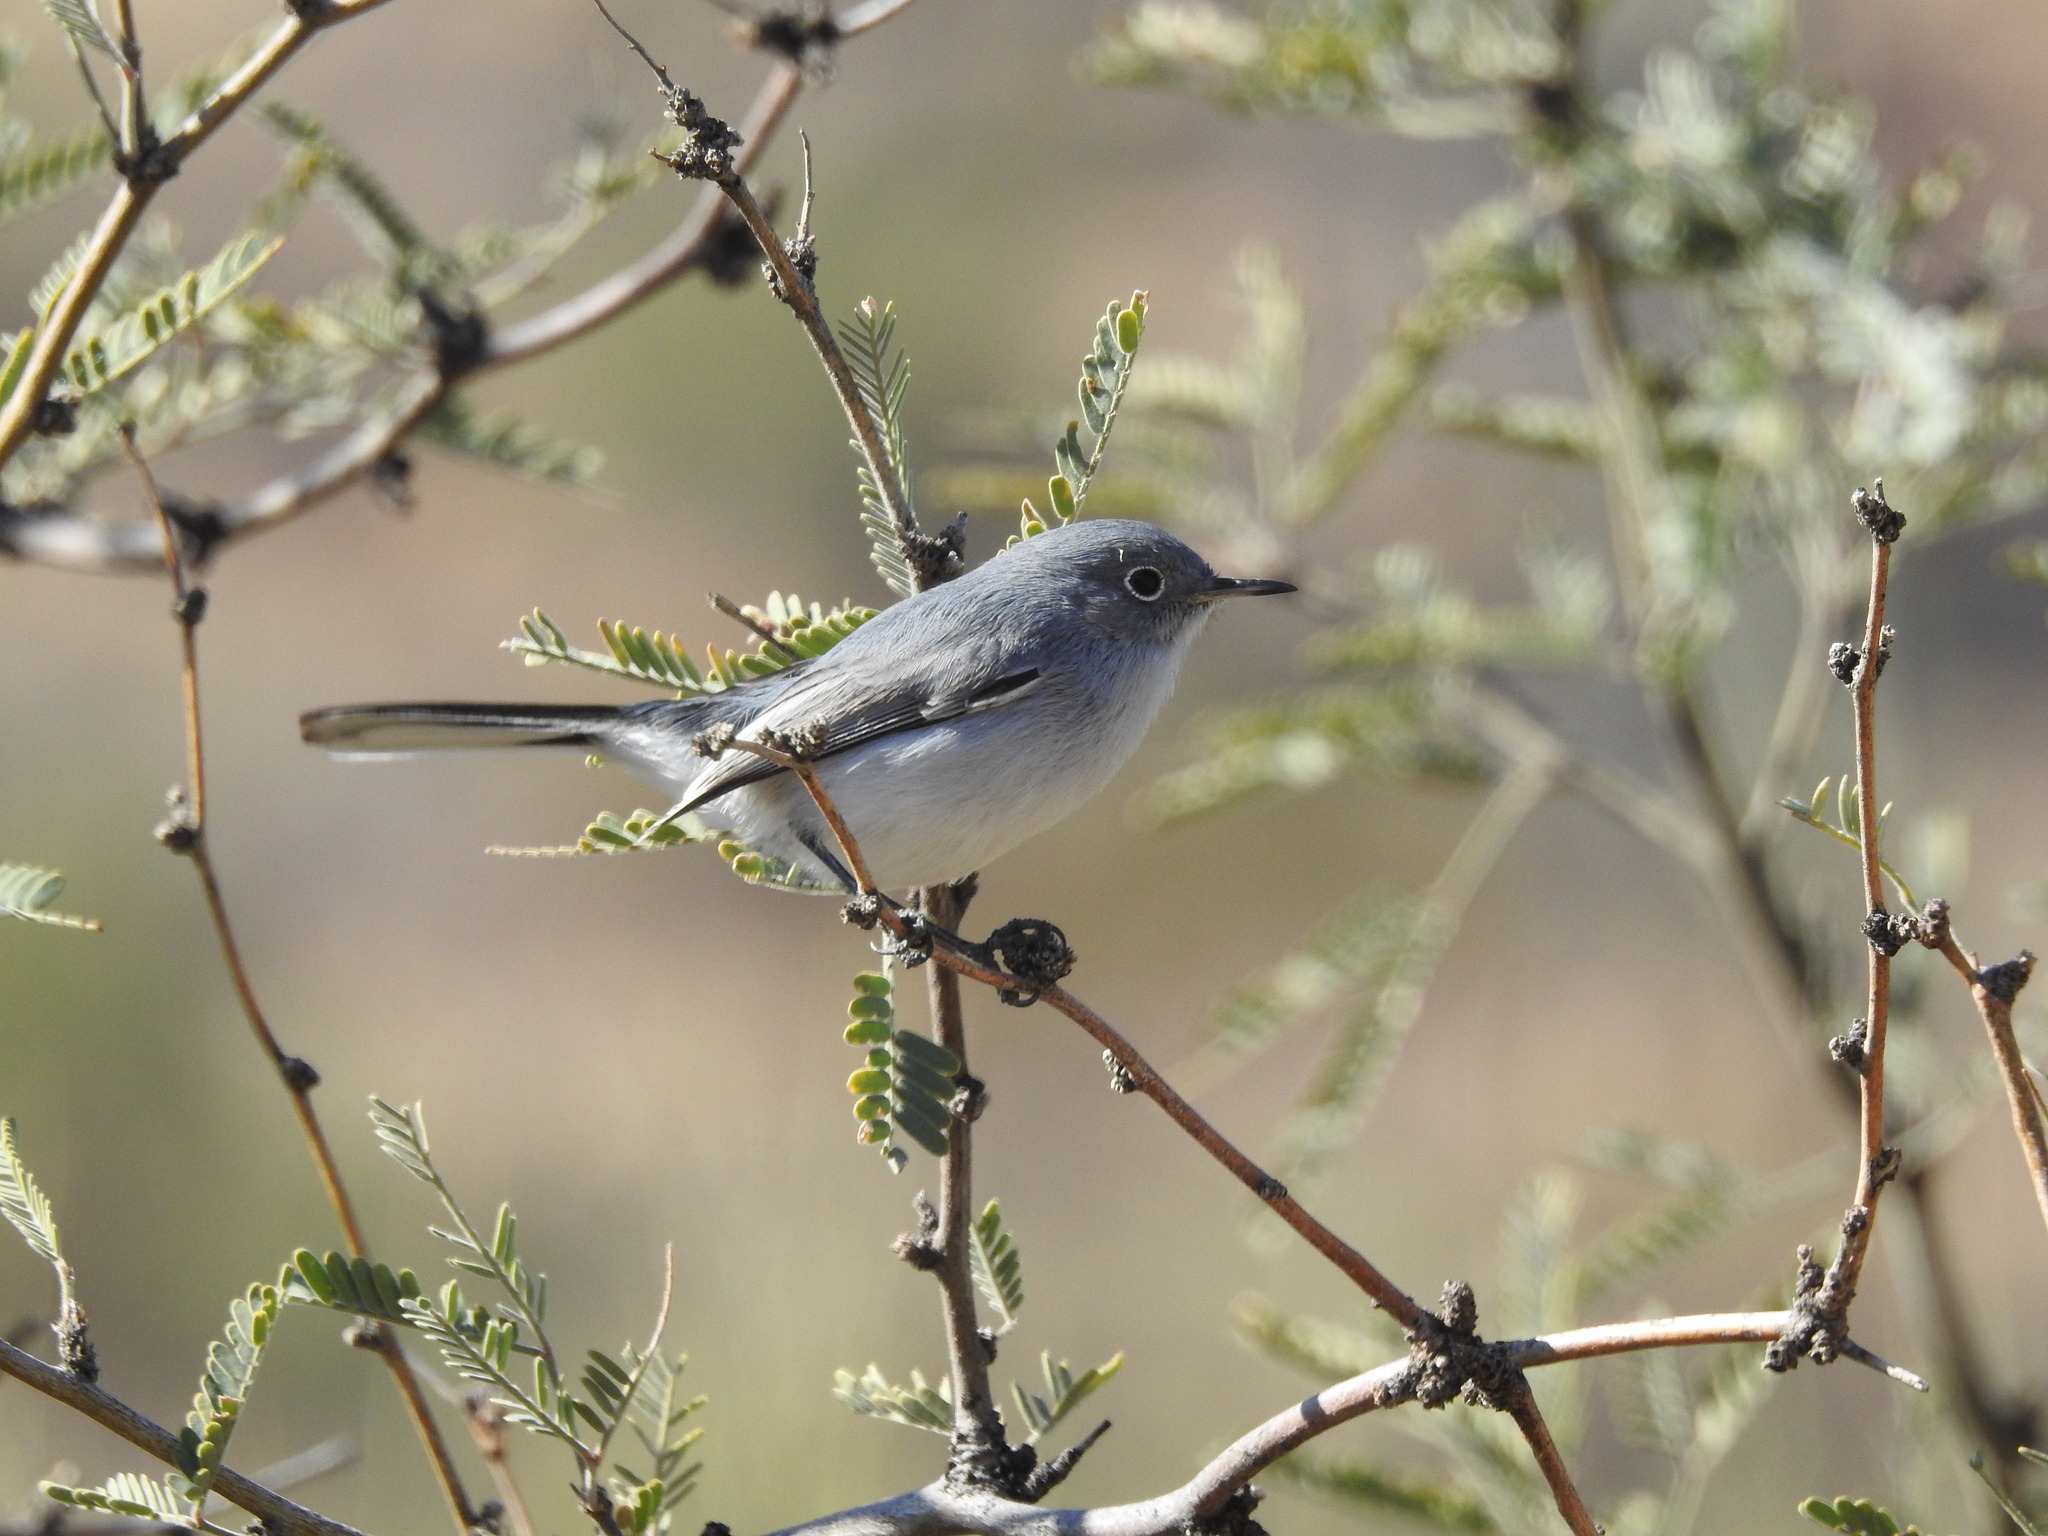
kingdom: Animalia
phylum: Chordata
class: Aves
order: Passeriformes
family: Polioptilidae
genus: Polioptila
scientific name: Polioptila caerulea
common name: Blue-gray gnatcatcher
